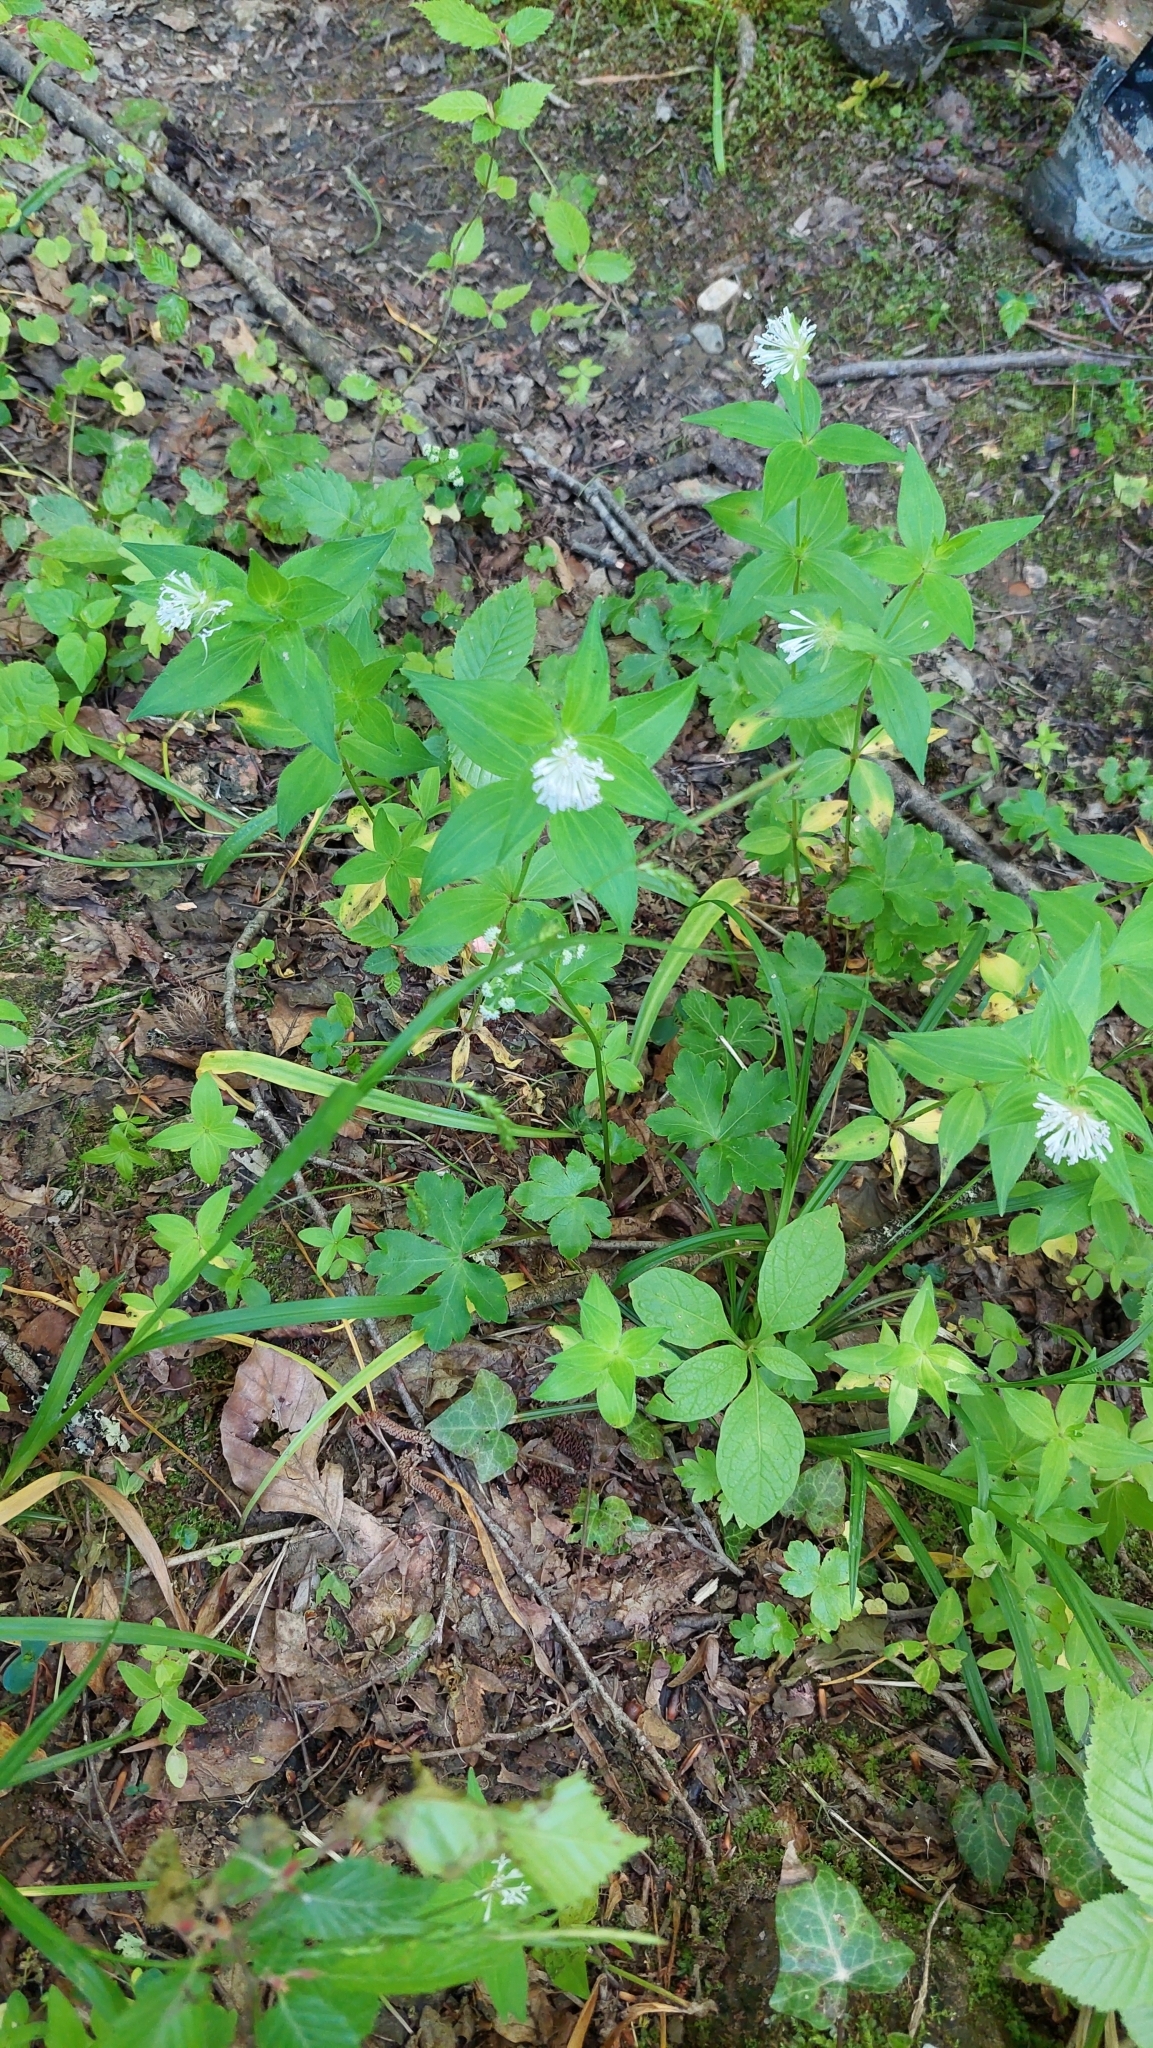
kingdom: Plantae
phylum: Tracheophyta
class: Magnoliopsida
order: Gentianales
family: Rubiaceae
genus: Asperula
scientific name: Asperula taurina
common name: Pink woodruff
